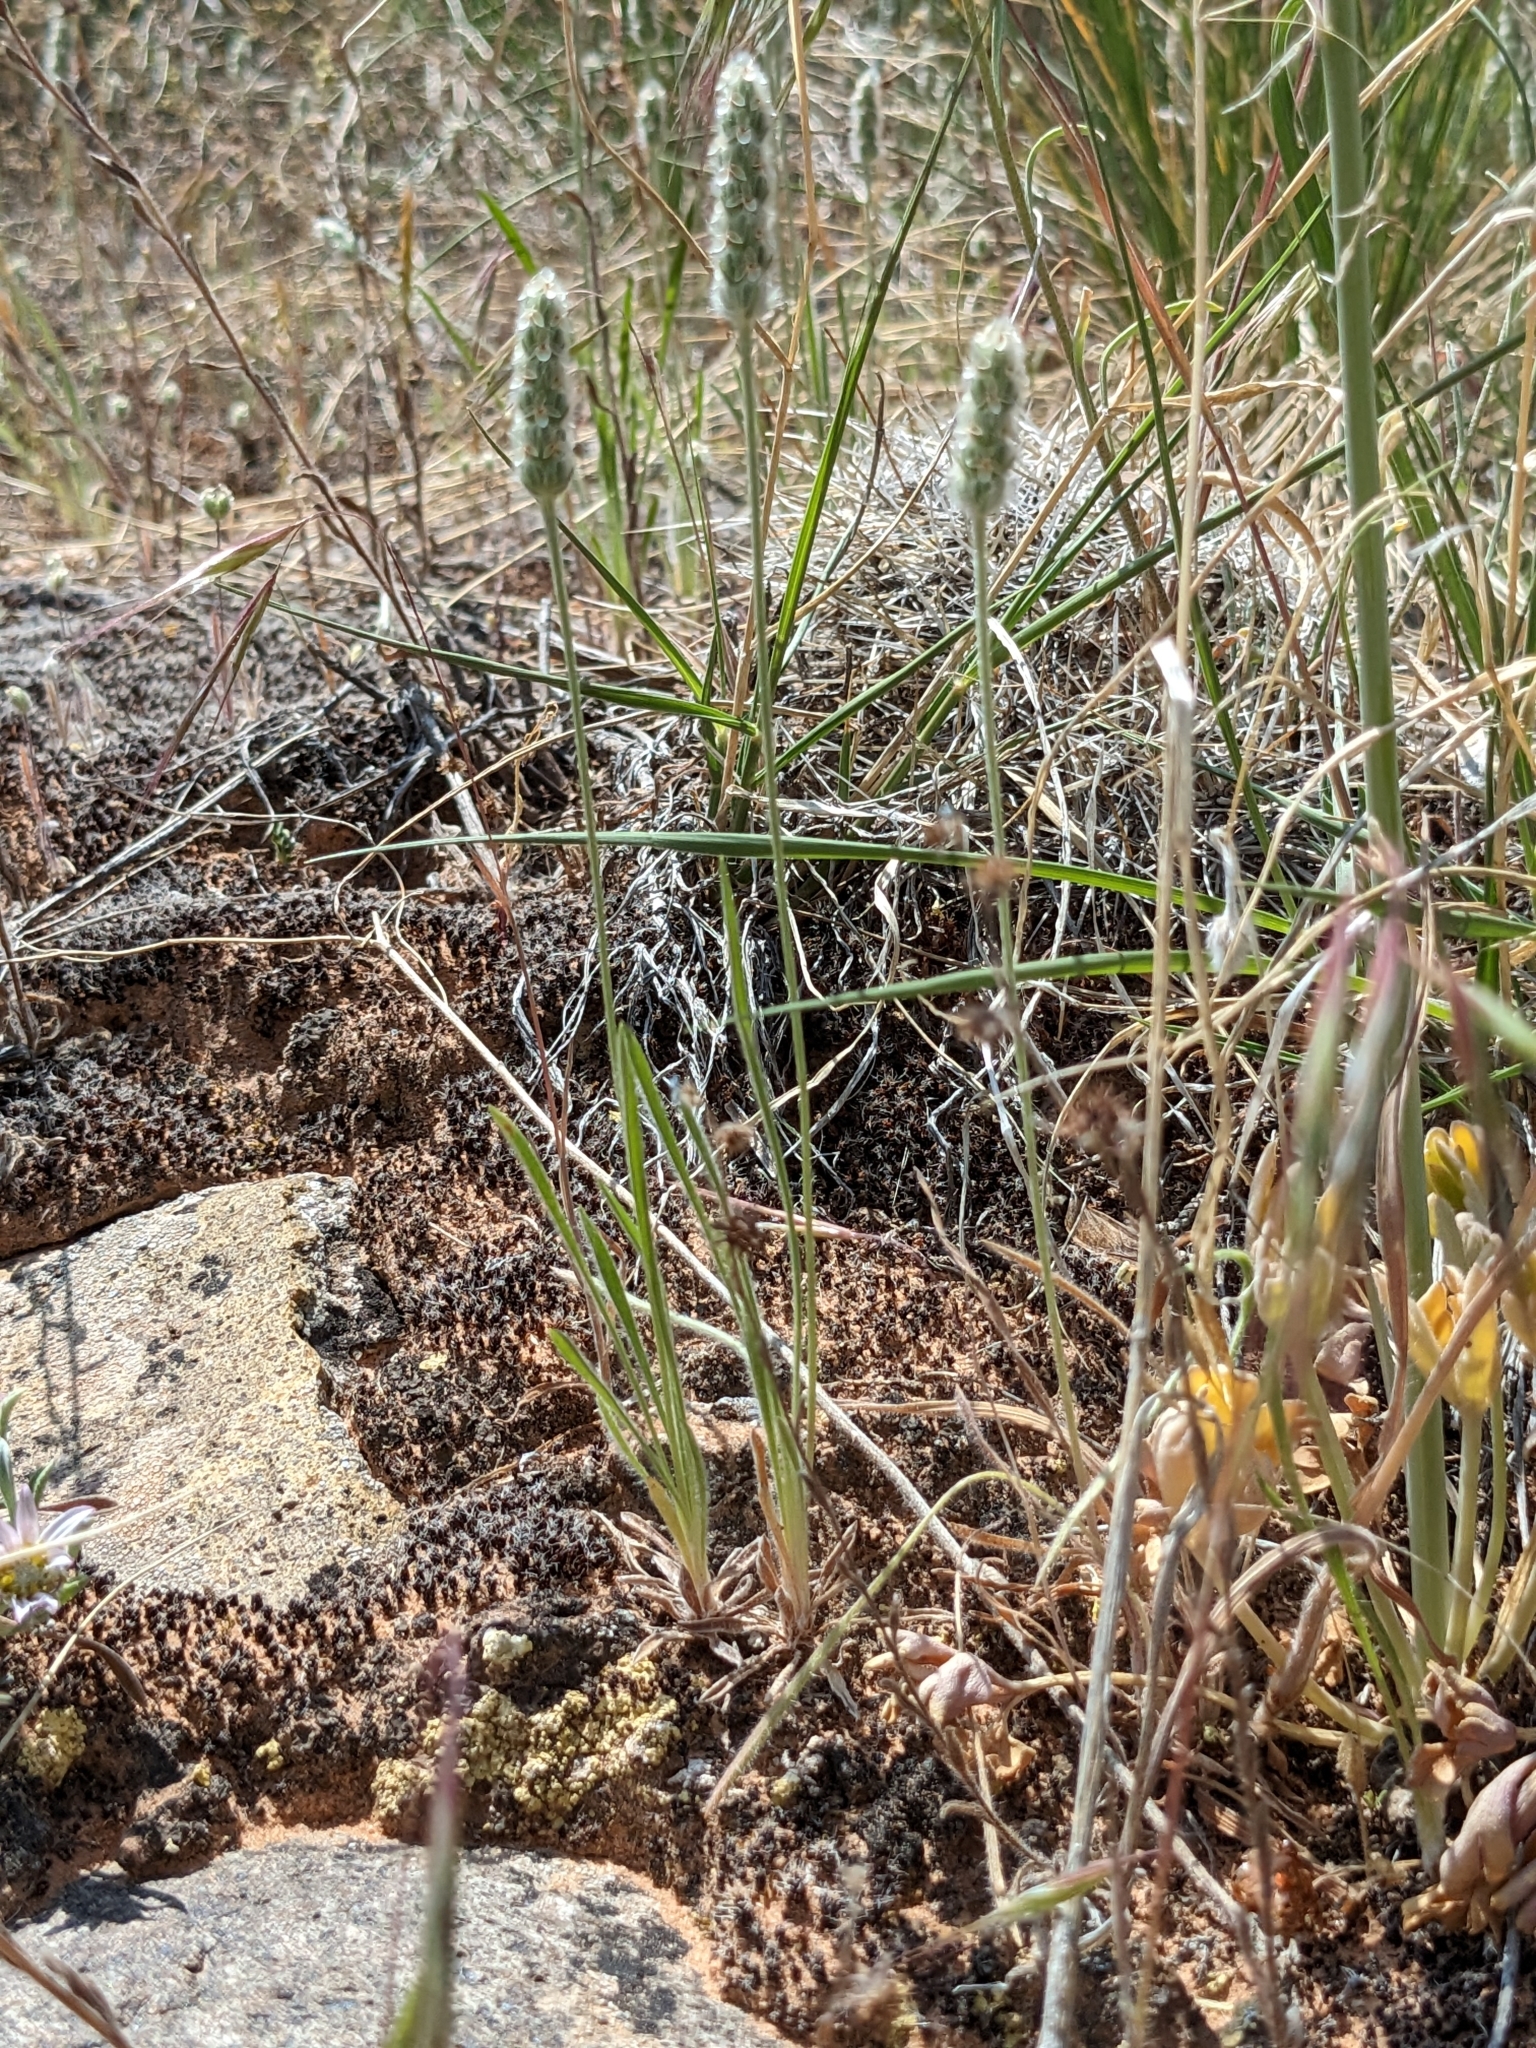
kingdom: Plantae
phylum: Tracheophyta
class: Magnoliopsida
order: Lamiales
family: Plantaginaceae
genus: Plantago
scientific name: Plantago patagonica
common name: Patagonia indian-wheat
